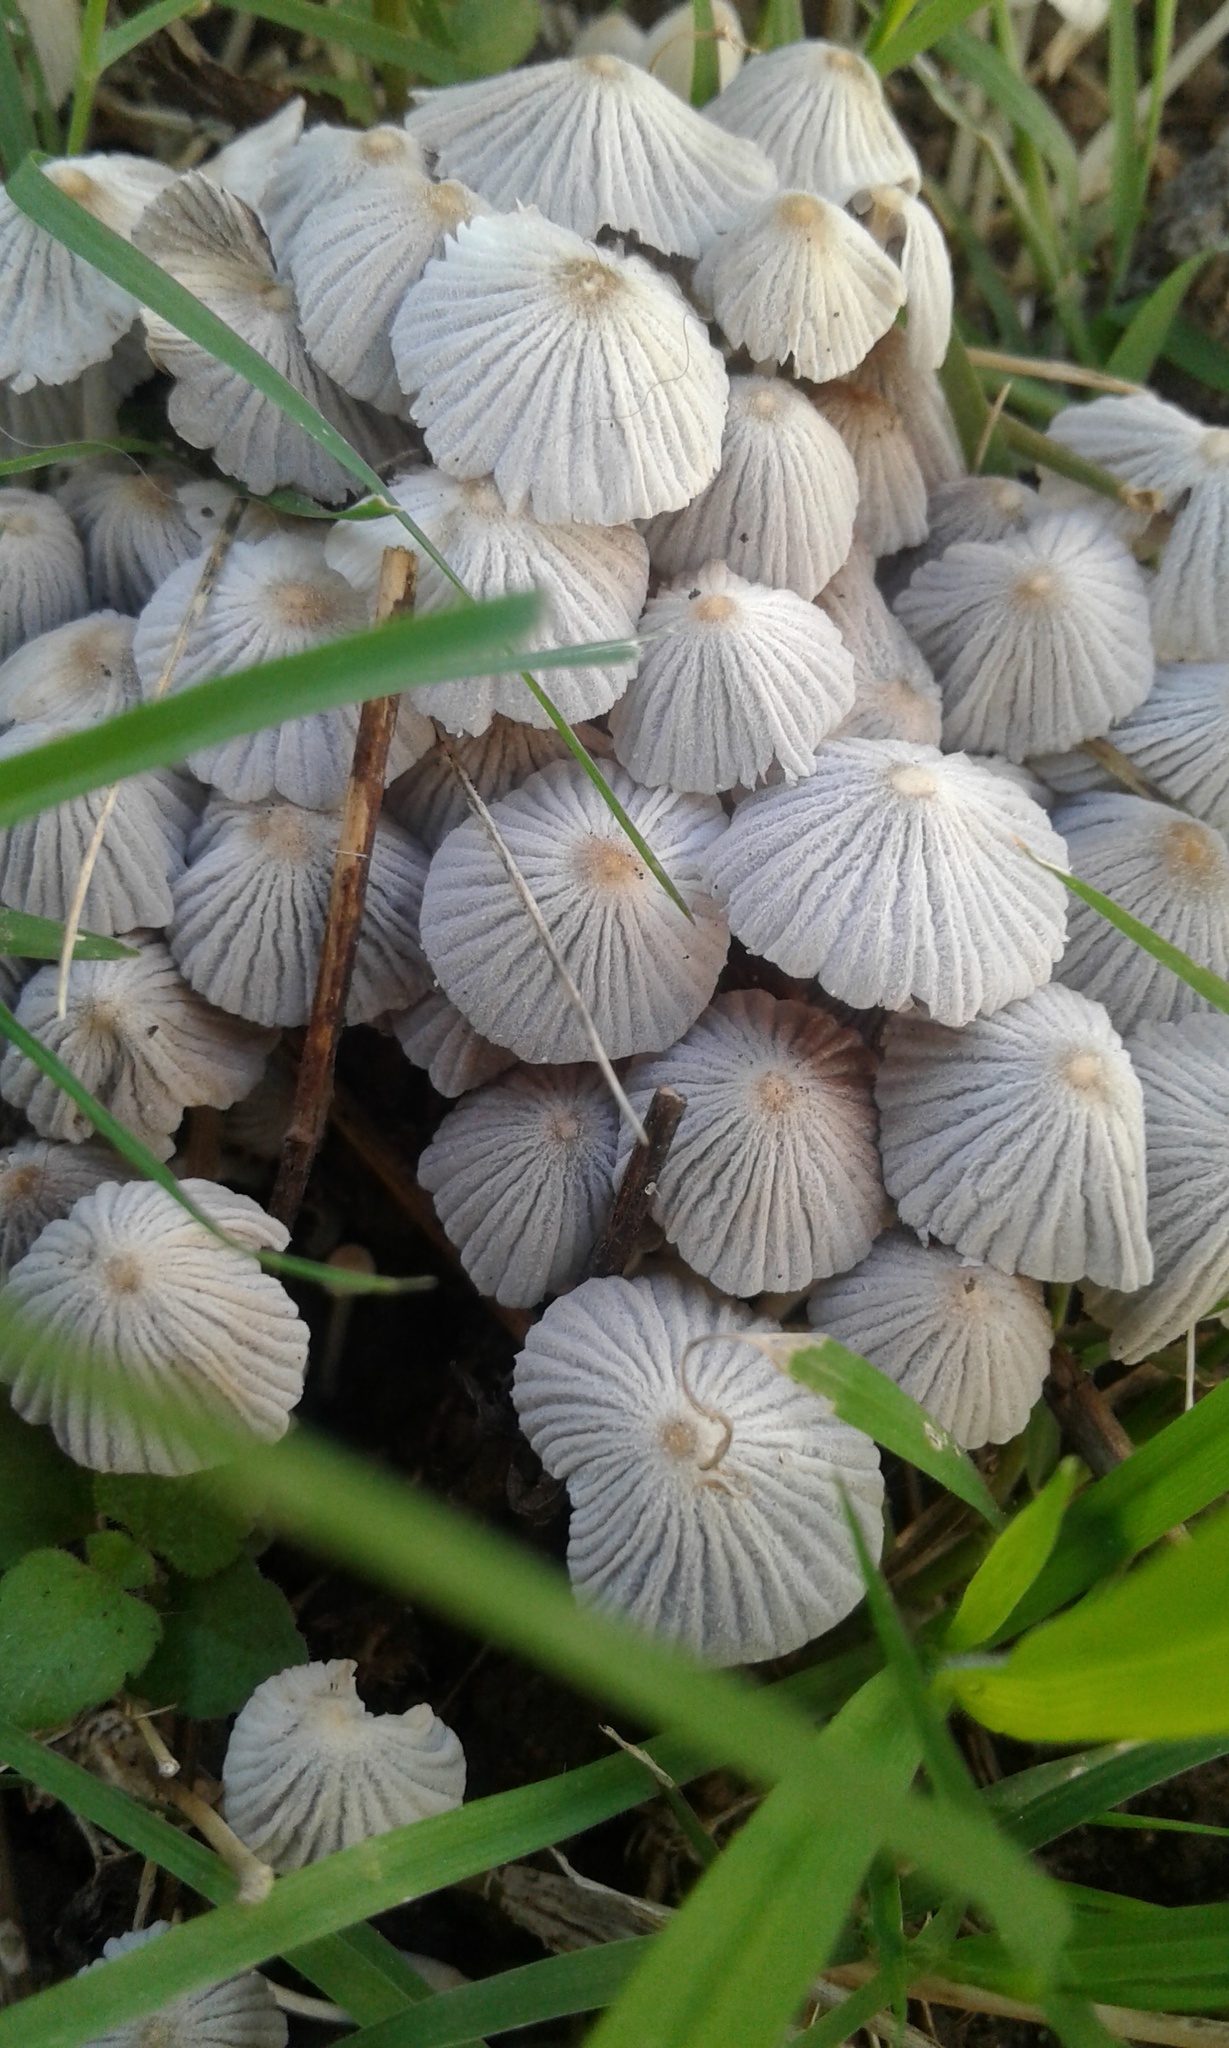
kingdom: Fungi
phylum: Basidiomycota
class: Agaricomycetes
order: Agaricales
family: Psathyrellaceae
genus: Coprinellus
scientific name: Coprinellus disseminatus
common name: Fairies' bonnets
